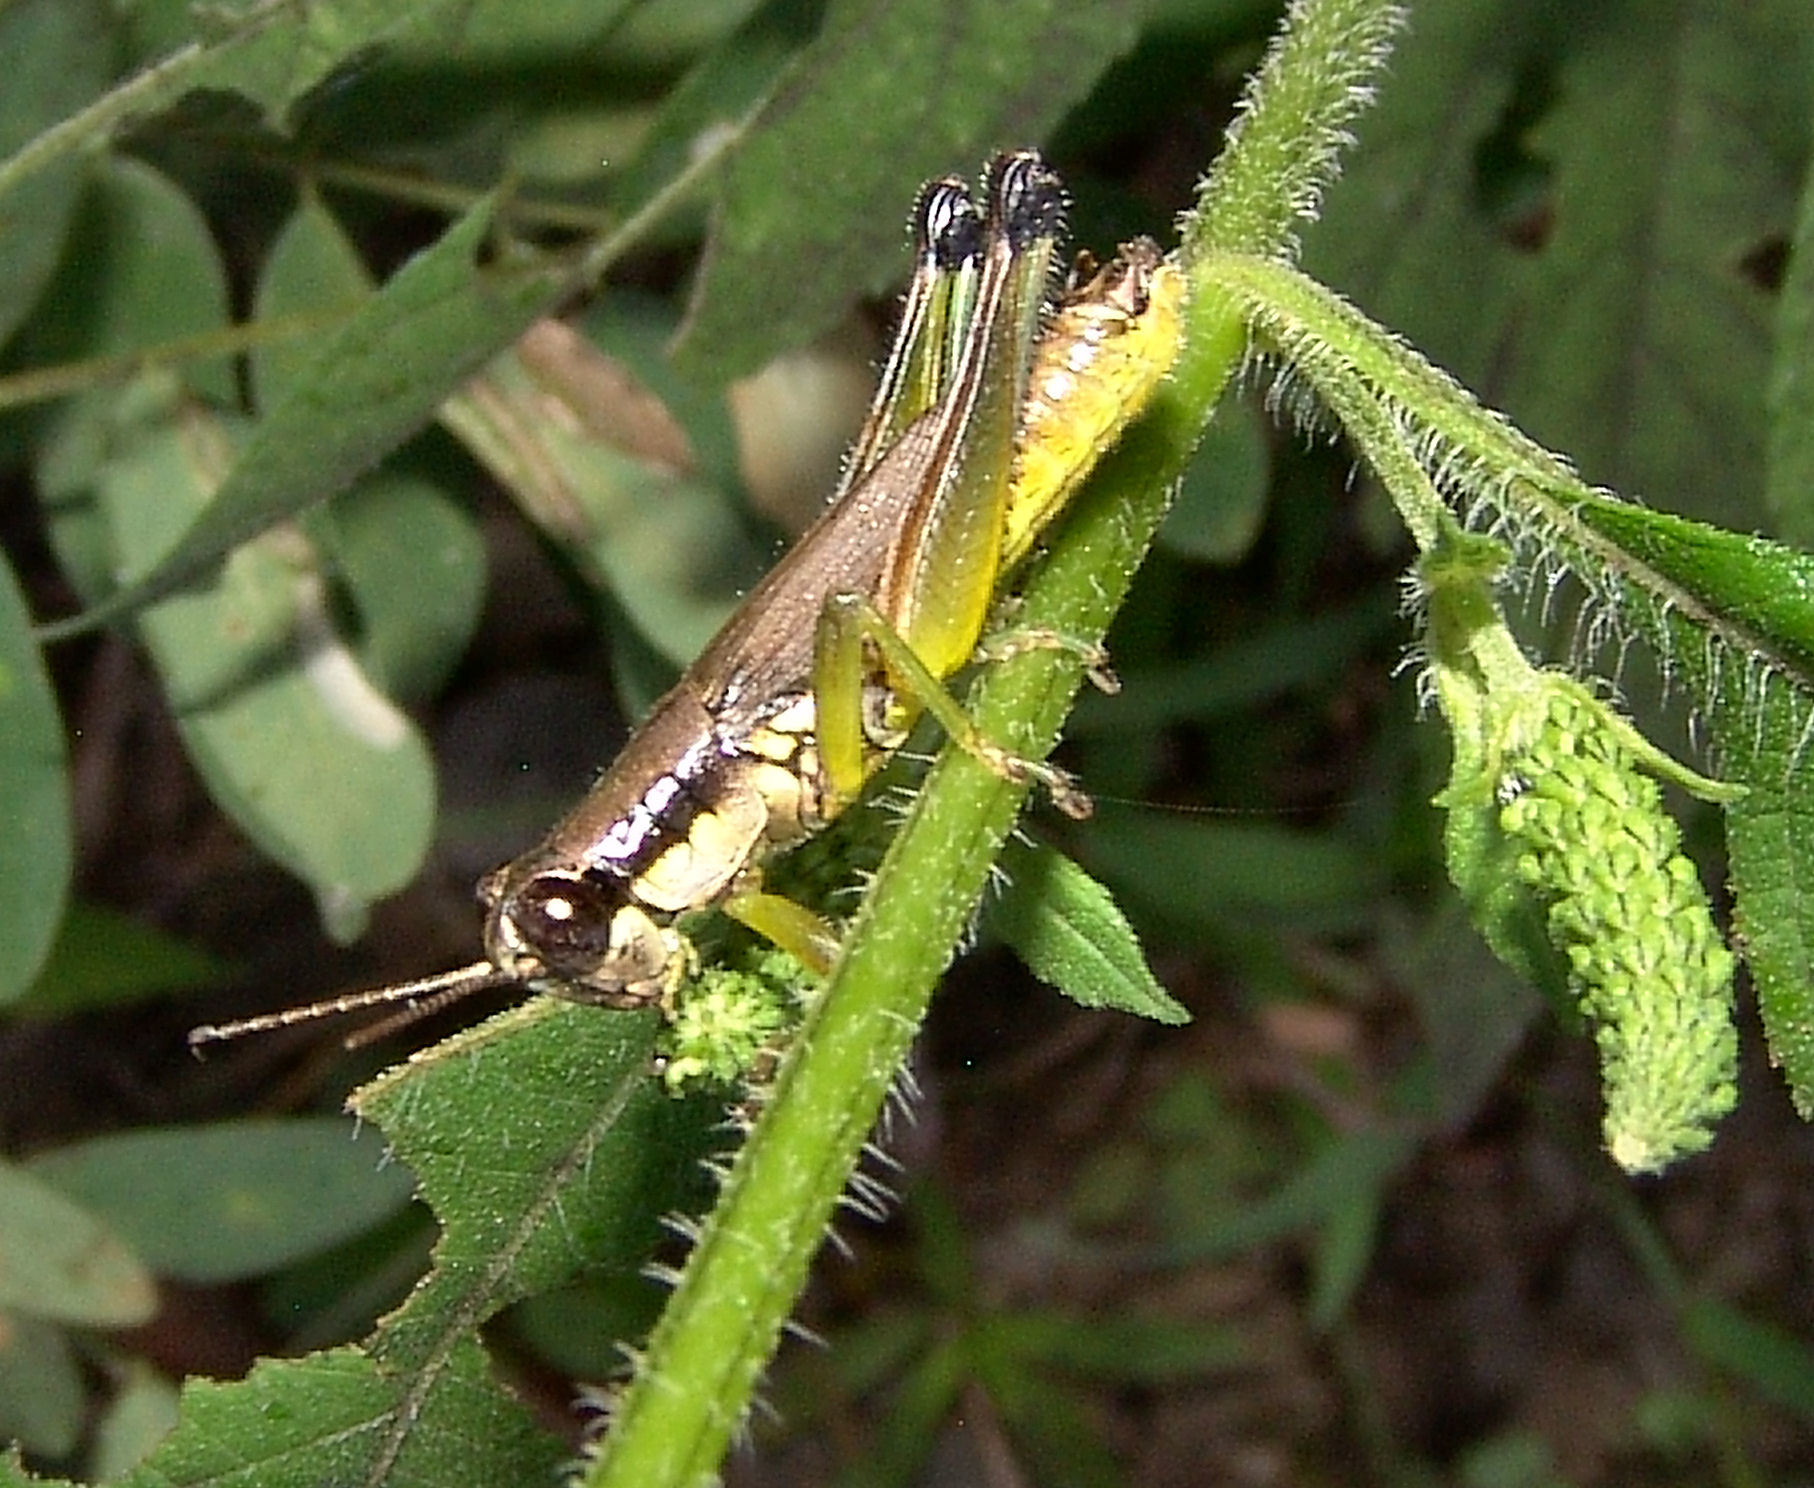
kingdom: Animalia
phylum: Arthropoda
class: Insecta
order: Orthoptera
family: Acrididae
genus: Paroxya
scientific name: Paroxya clavuligera
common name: Olive-green swamp grasshopper
